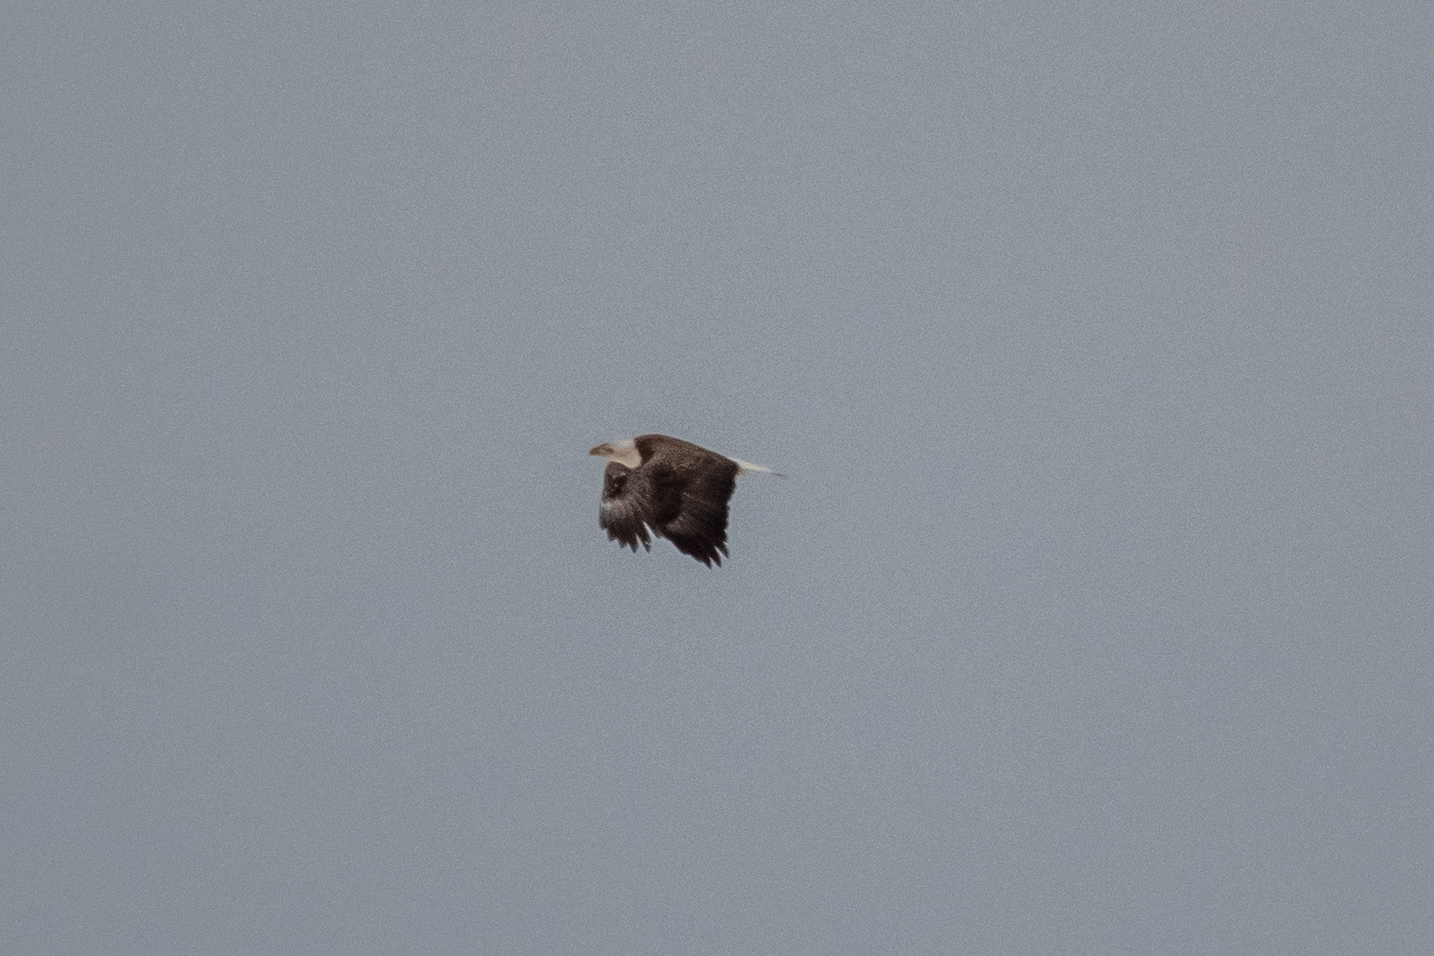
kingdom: Animalia
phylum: Chordata
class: Aves
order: Accipitriformes
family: Accipitridae
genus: Haliaeetus
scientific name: Haliaeetus leucocephalus
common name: Bald eagle
